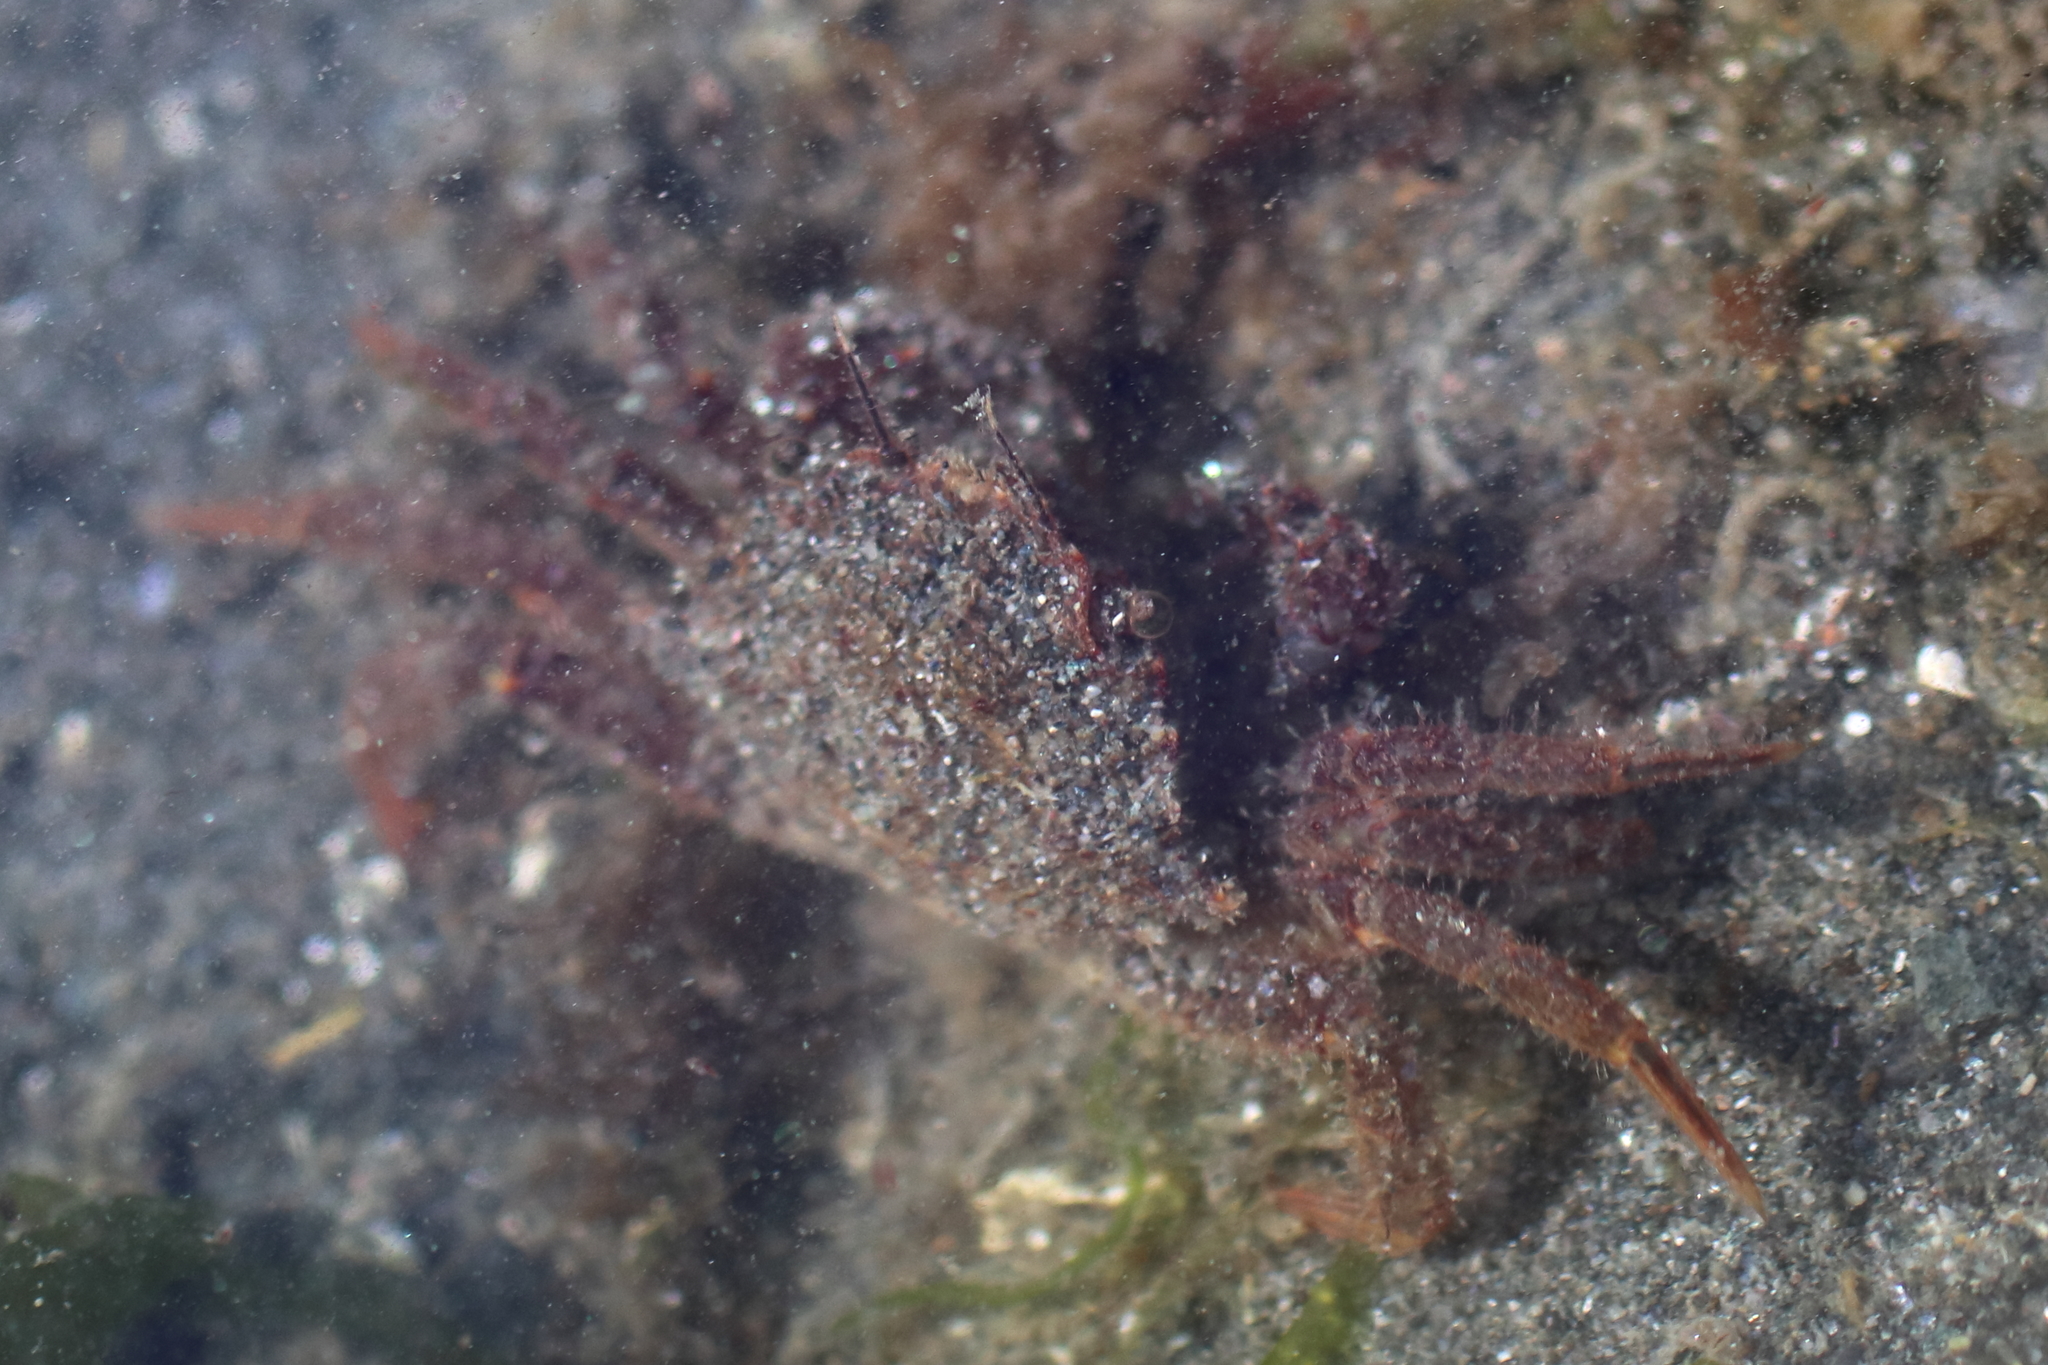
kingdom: Animalia
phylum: Arthropoda
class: Malacostraca
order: Decapoda
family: Cheiragonidae
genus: Telmessus
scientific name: Telmessus cheiragonus
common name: Helmet crab
